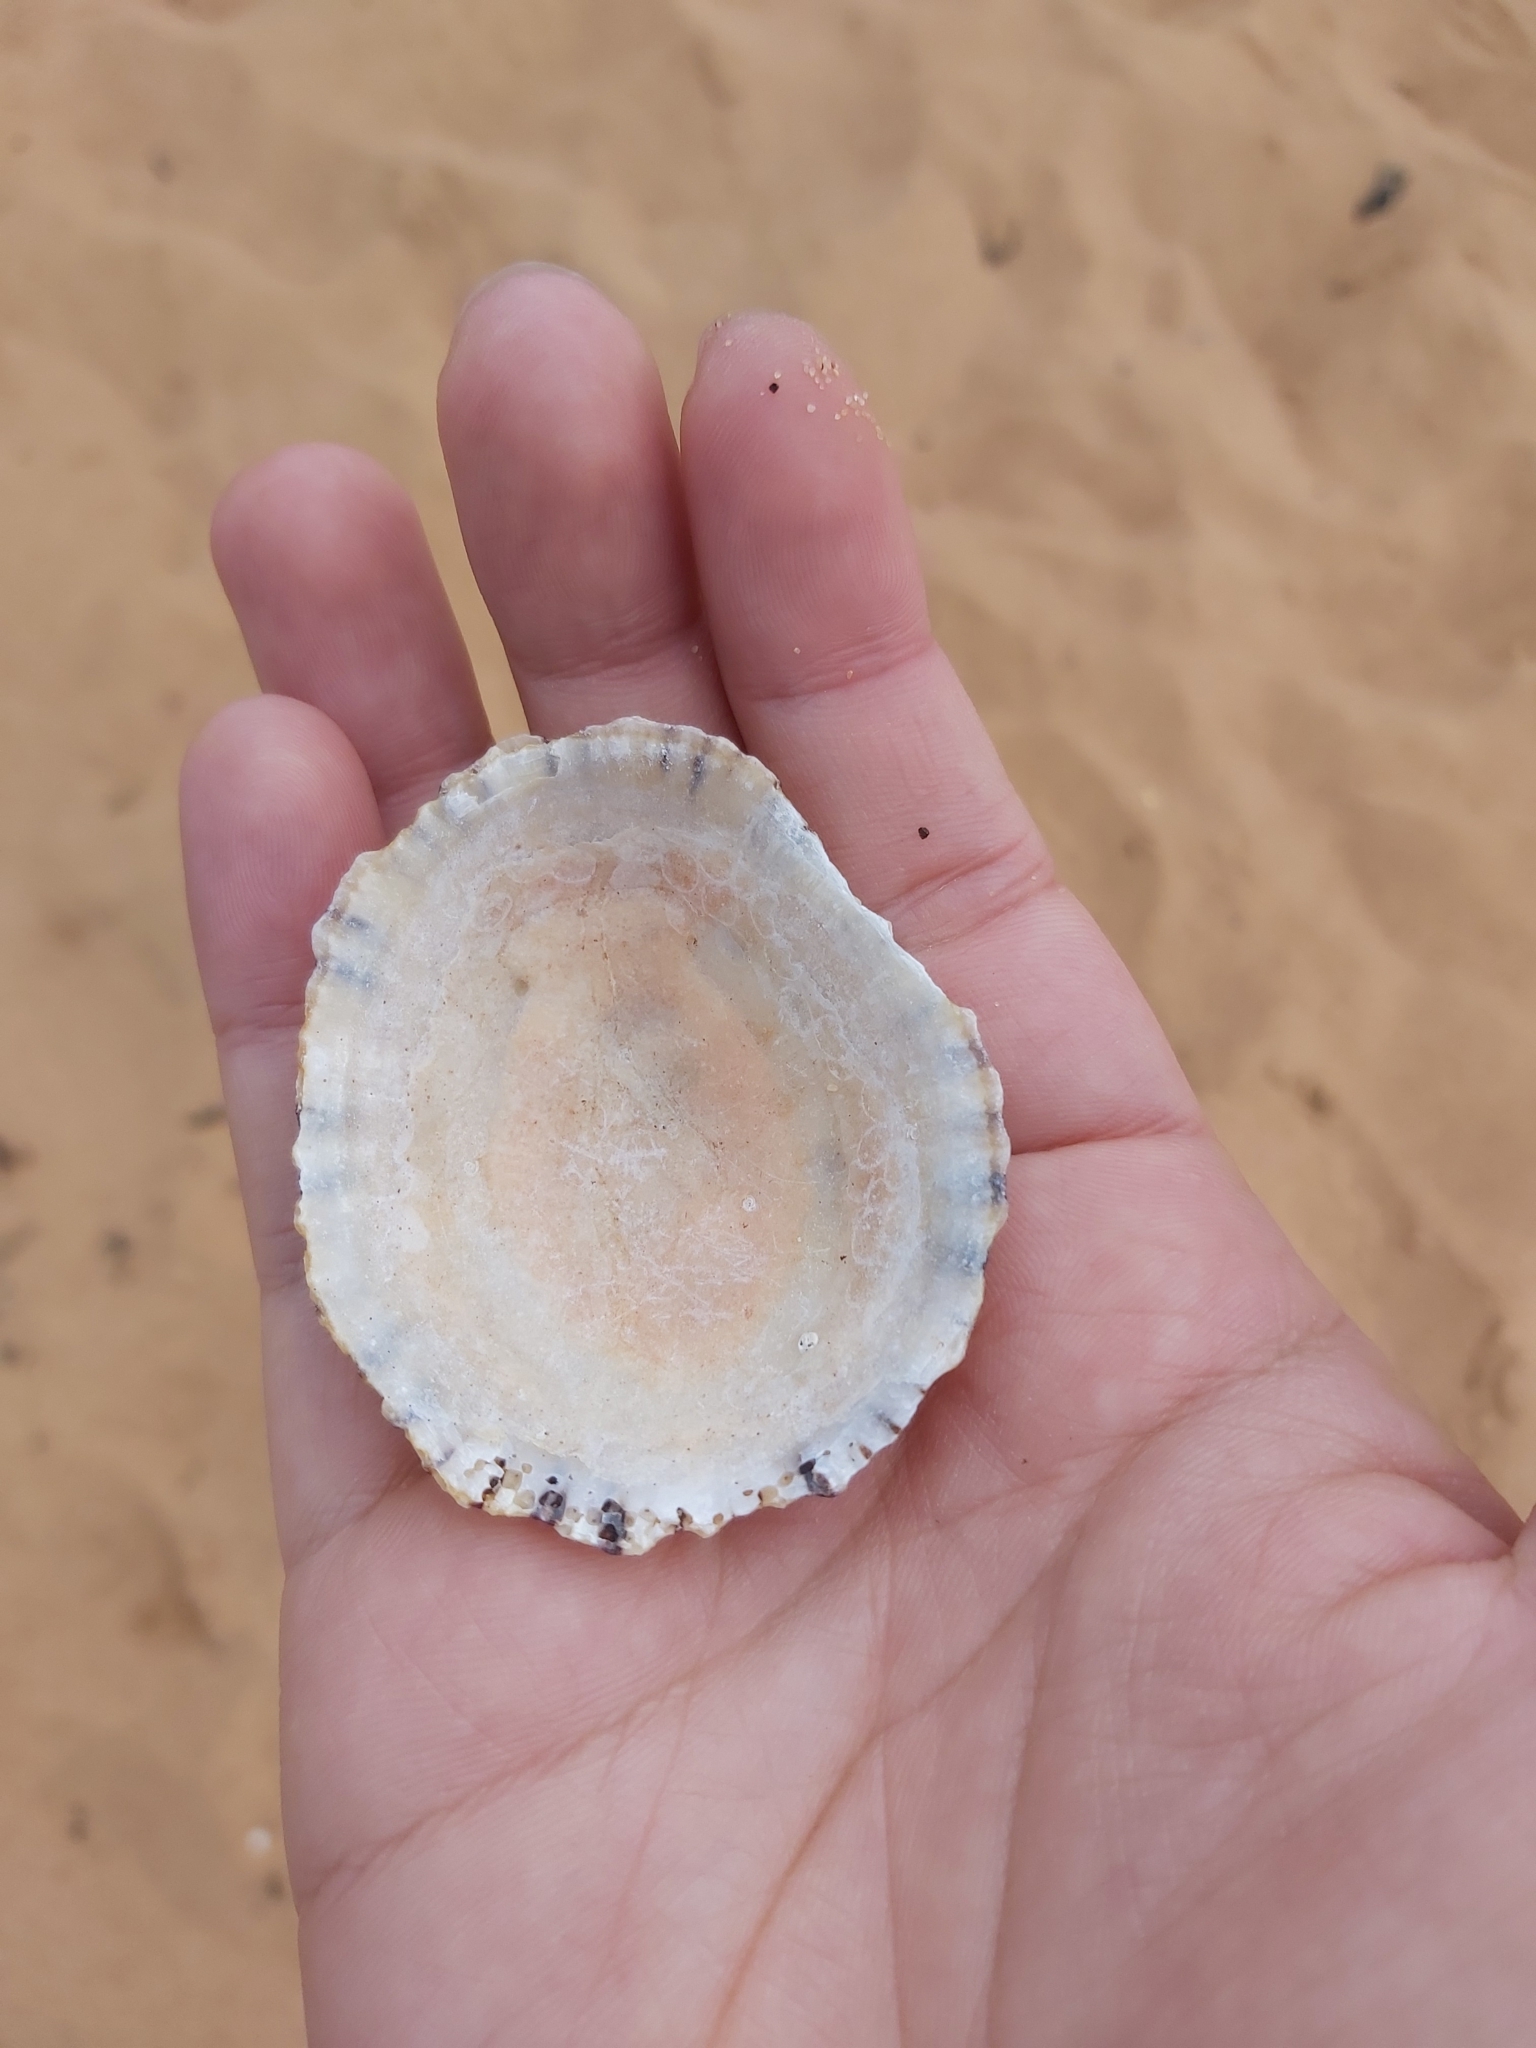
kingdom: Animalia
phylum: Mollusca
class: Gastropoda
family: Nacellidae
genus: Cellana
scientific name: Cellana tramoserica
